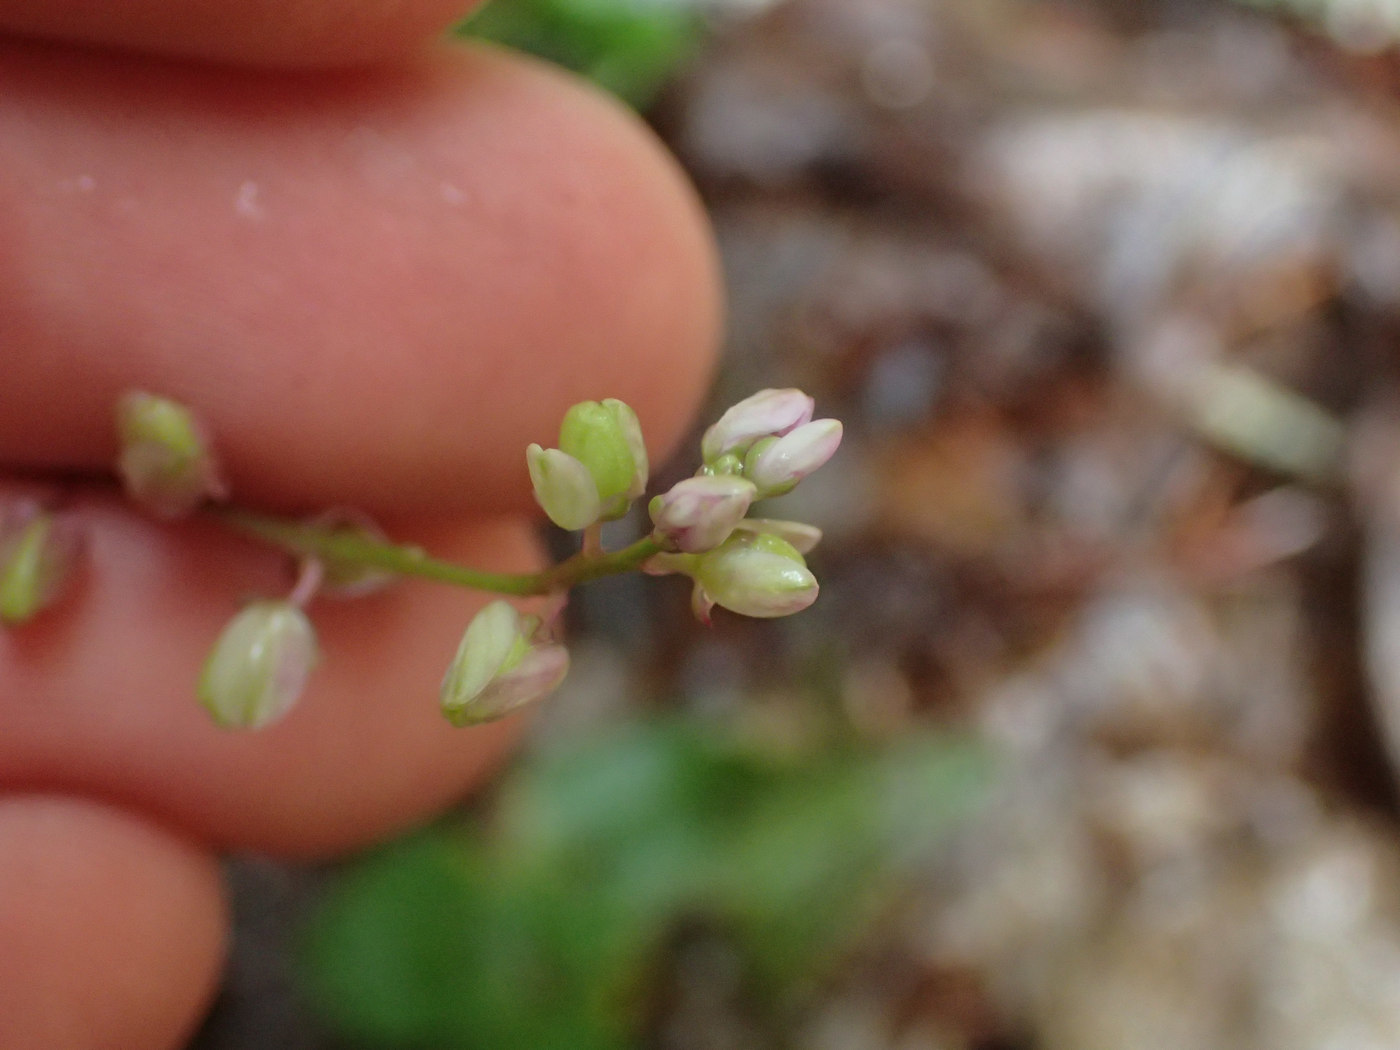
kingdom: Plantae
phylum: Tracheophyta
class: Magnoliopsida
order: Fabales
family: Polygalaceae
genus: Polygala
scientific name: Polygala polygama
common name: Bitter milkwort
